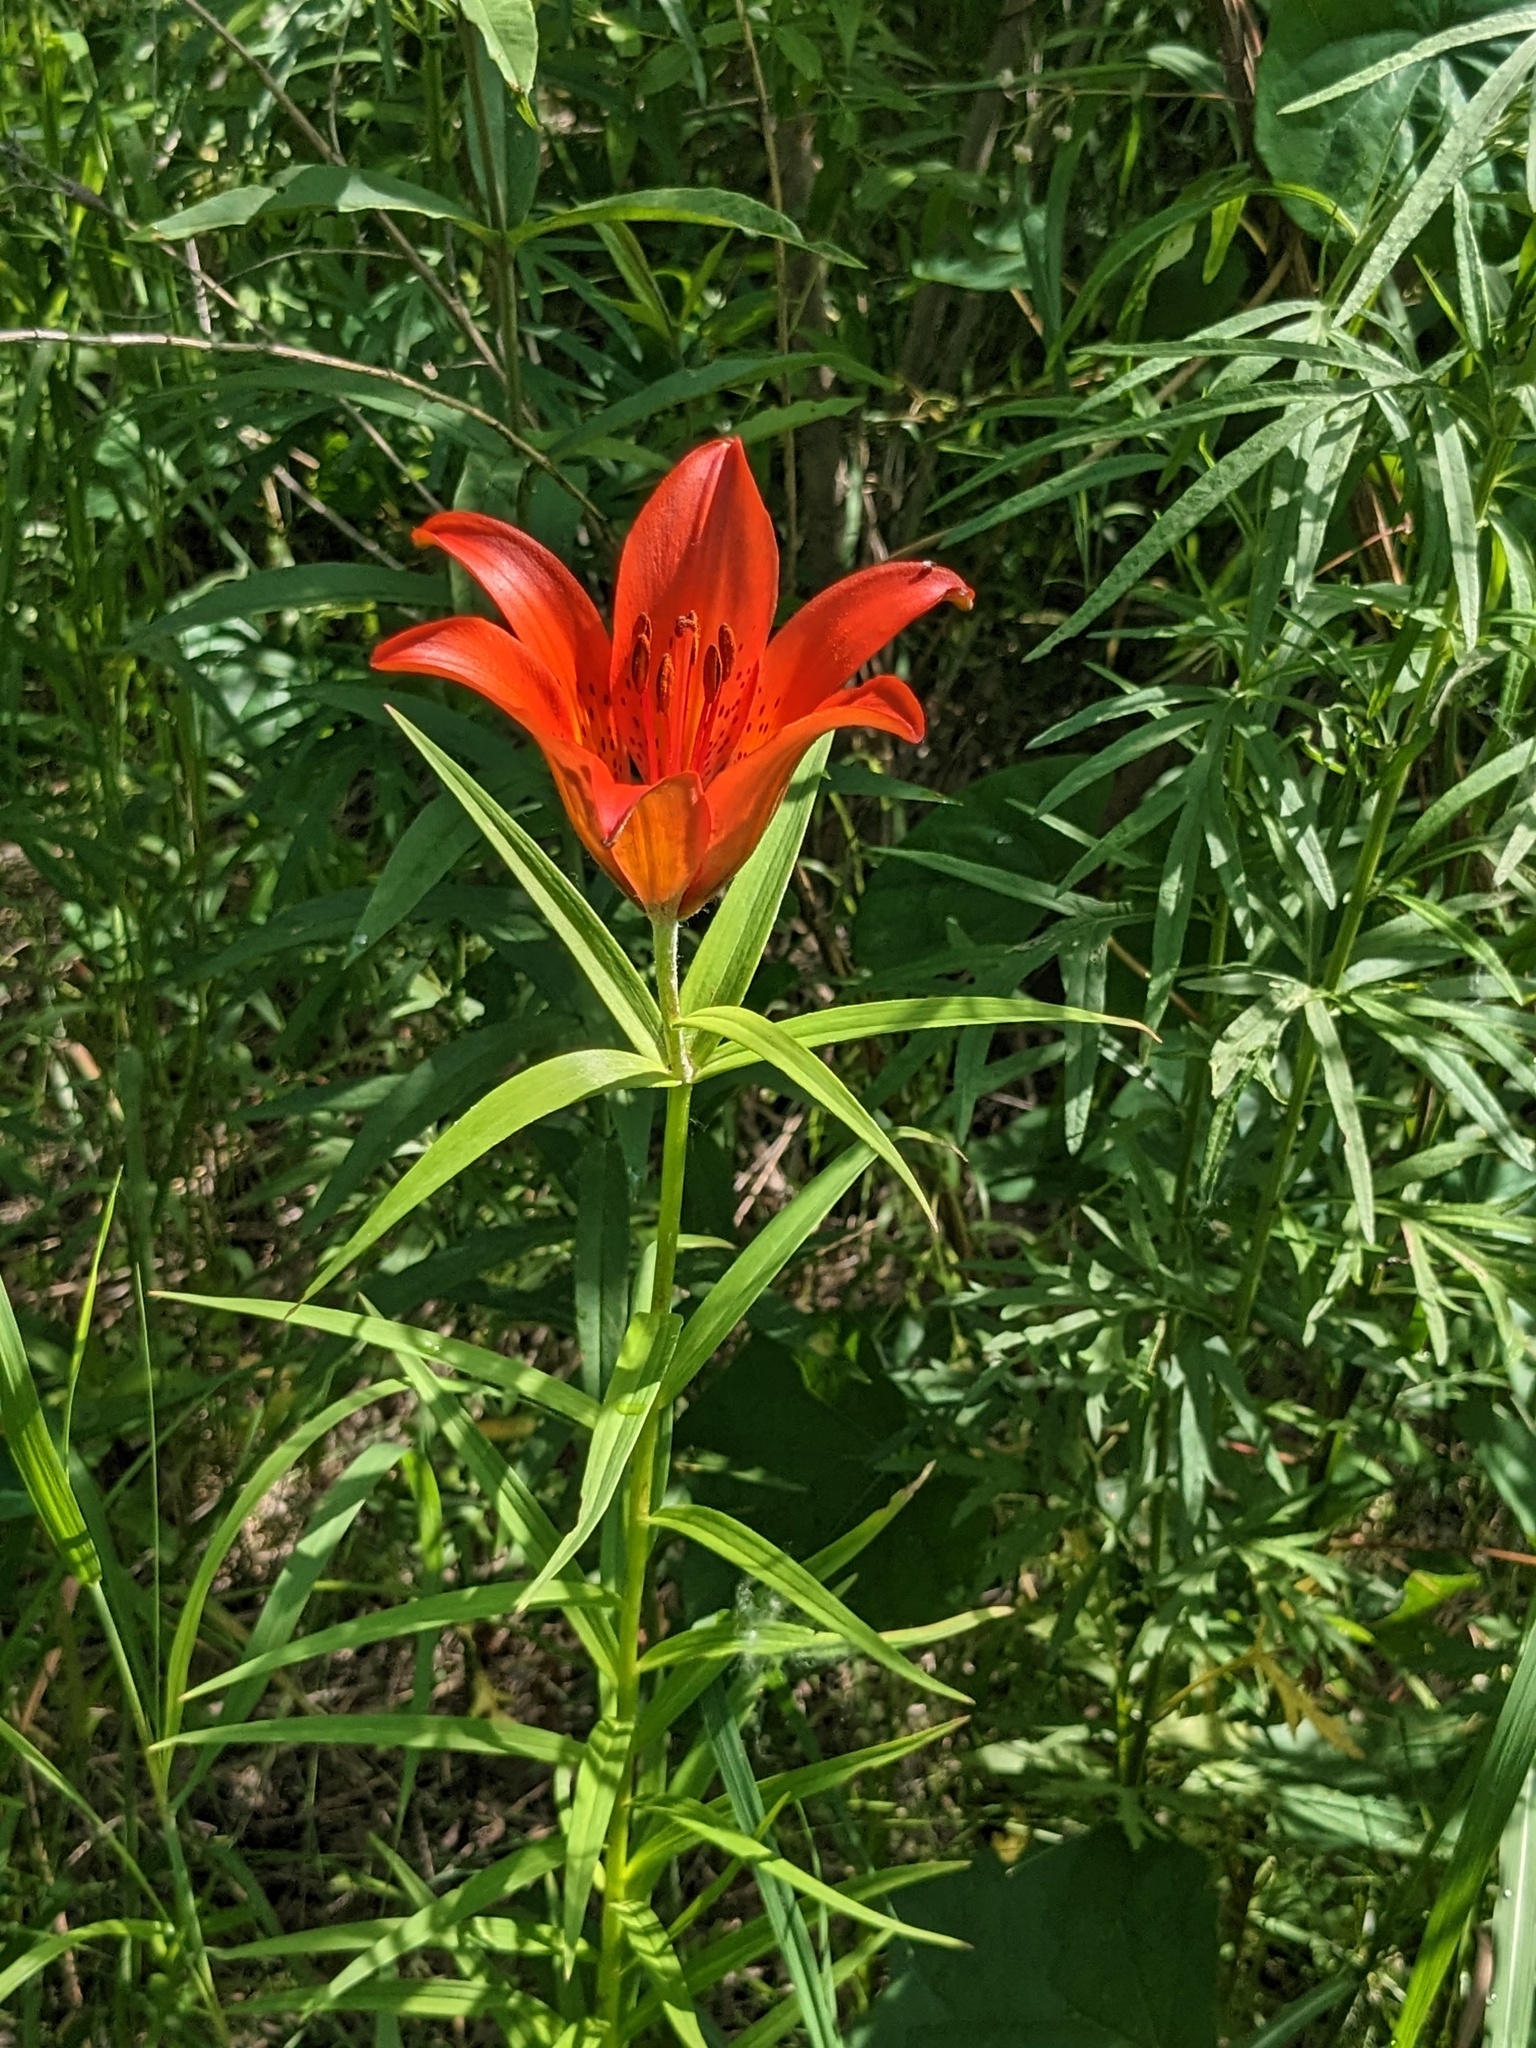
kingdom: Plantae
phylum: Tracheophyta
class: Liliopsida
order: Liliales
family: Liliaceae
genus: Lilium
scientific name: Lilium pensylvanicum
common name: Candlestick lily
